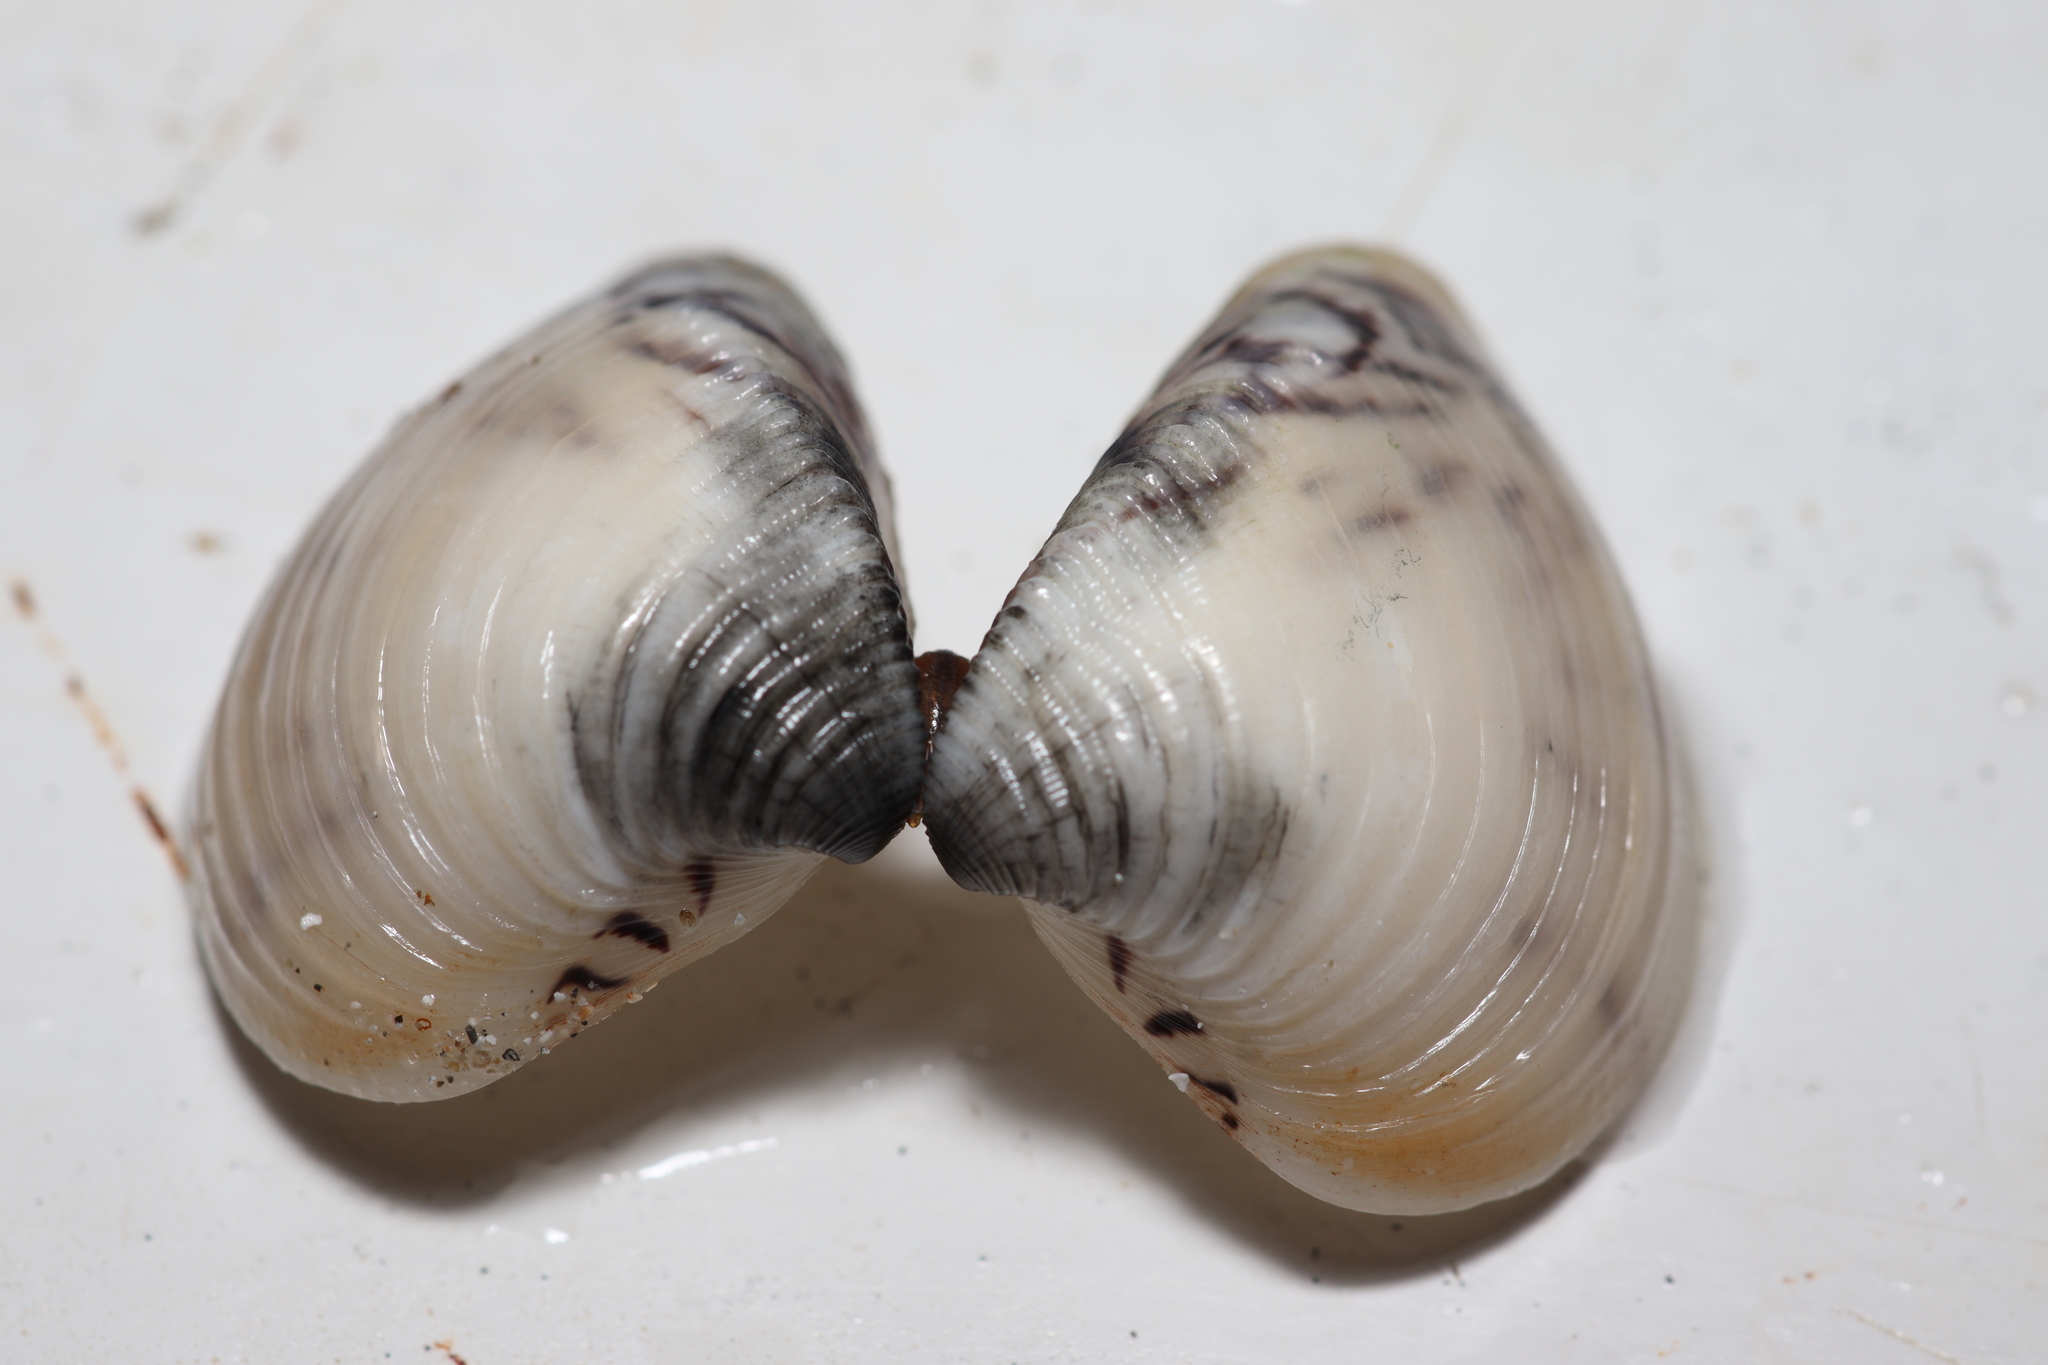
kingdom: Animalia
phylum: Mollusca
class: Bivalvia
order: Venerida
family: Veneridae
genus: Anomalocardia
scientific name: Anomalocardia flexuosa
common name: Carib pointed venus
